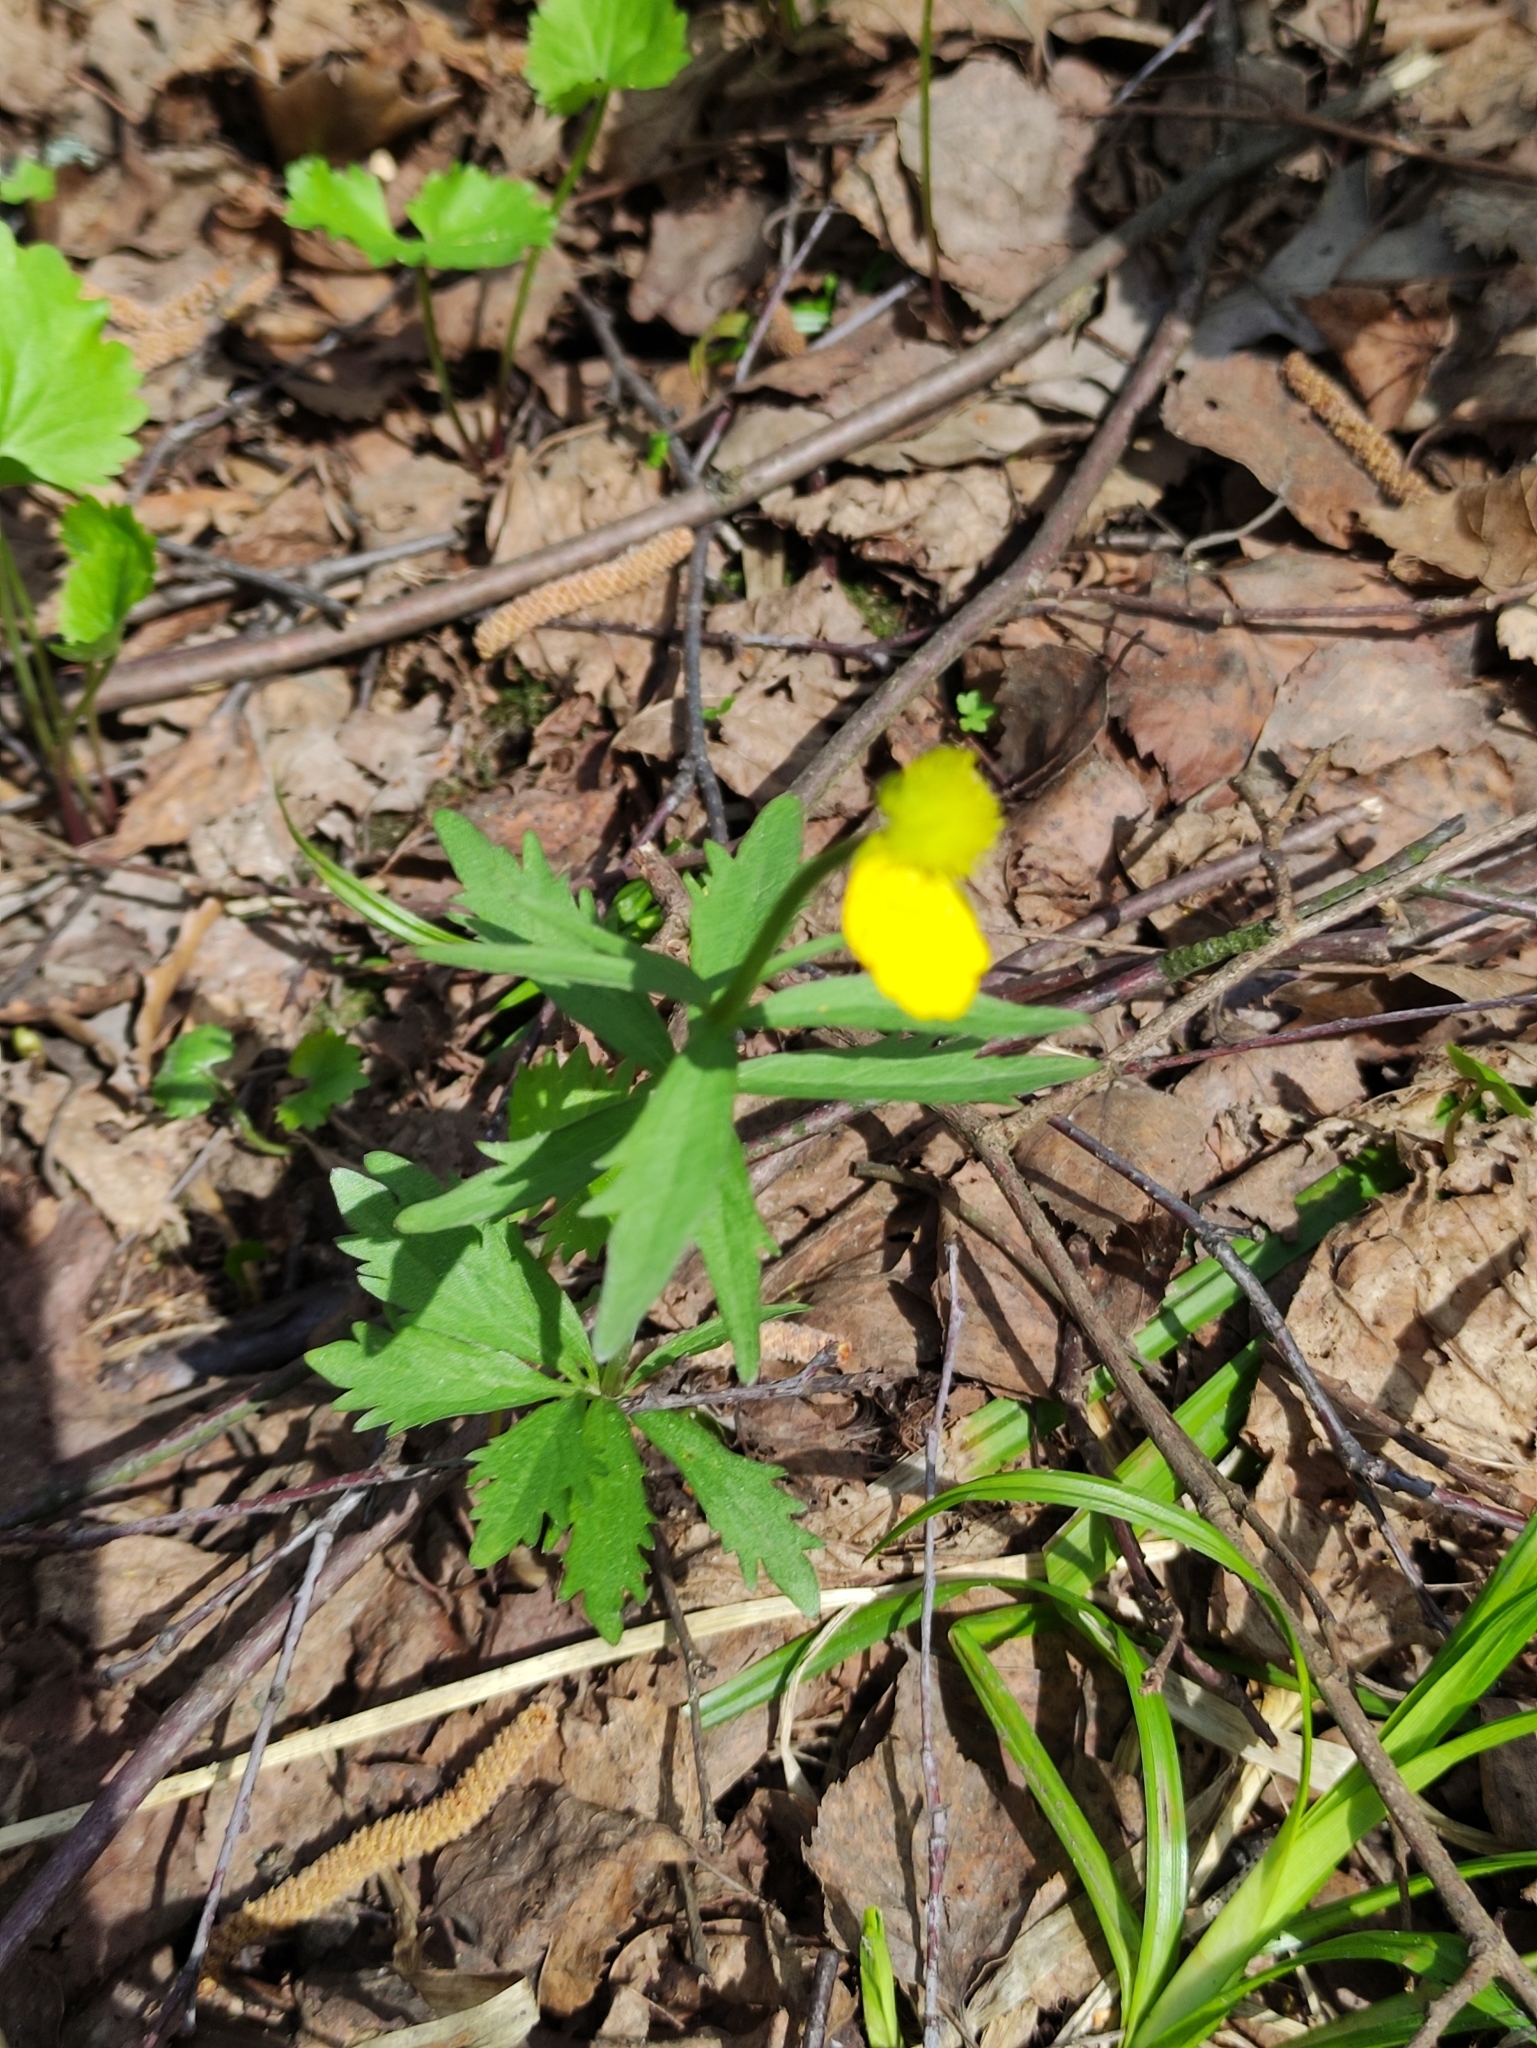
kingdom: Plantae
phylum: Tracheophyta
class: Magnoliopsida
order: Ranunculales
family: Ranunculaceae
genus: Ranunculus
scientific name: Ranunculus cassubicus
